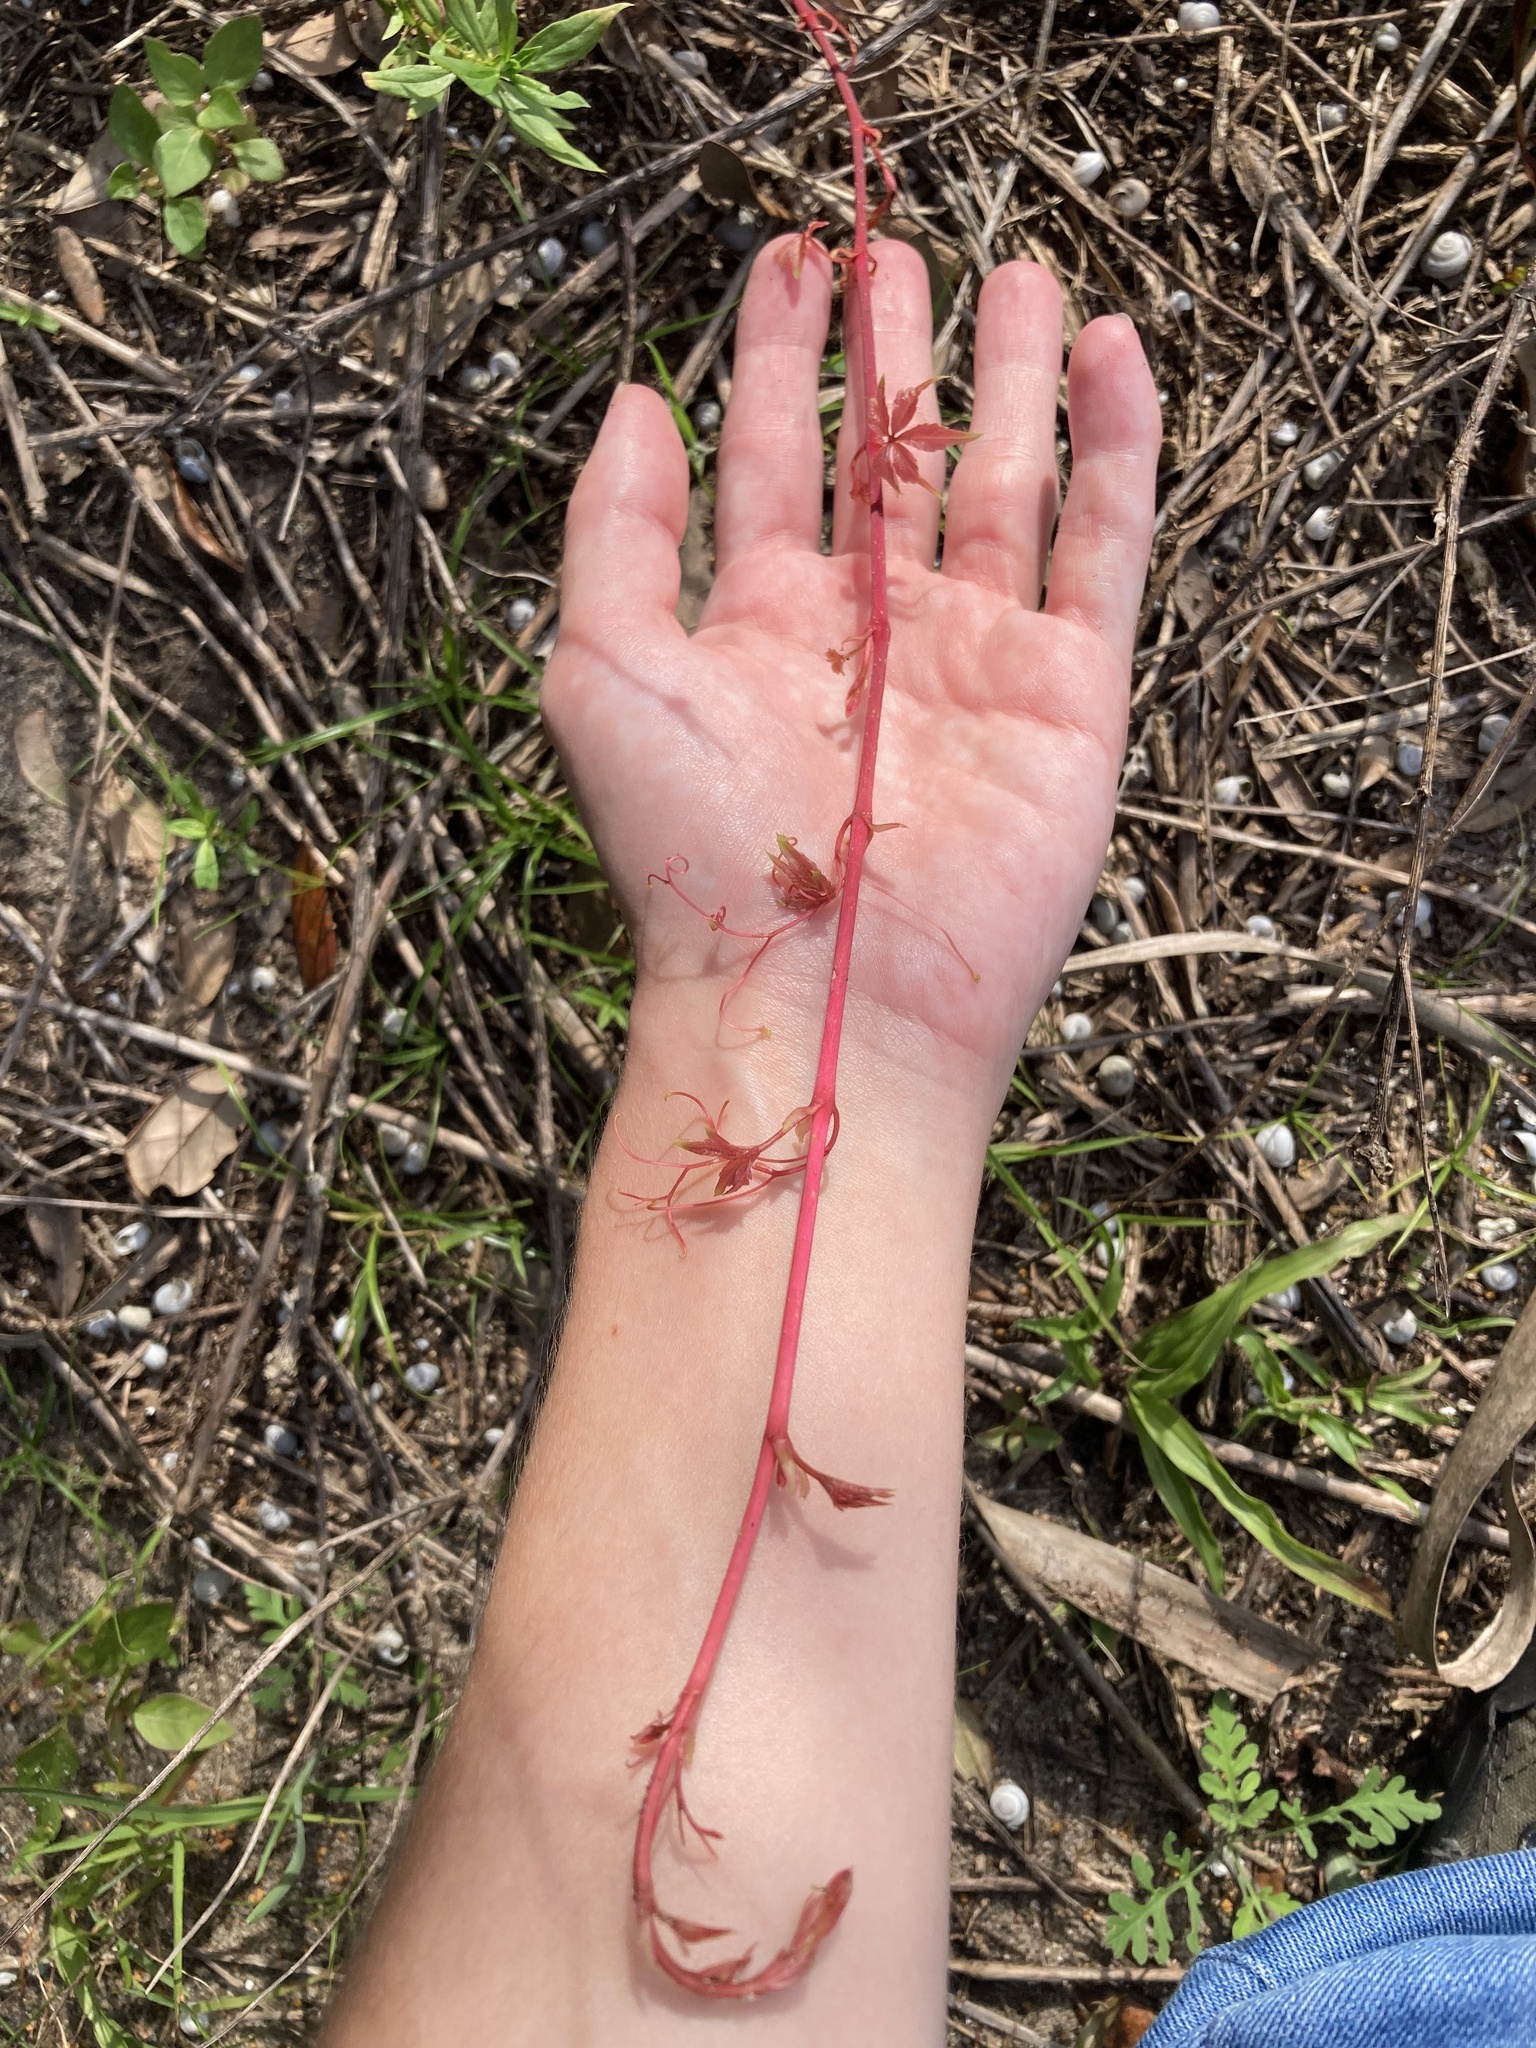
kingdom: Plantae
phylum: Tracheophyta
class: Magnoliopsida
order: Vitales
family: Vitaceae
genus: Parthenocissus
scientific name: Parthenocissus quinquefolia
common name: Virginia-creeper
